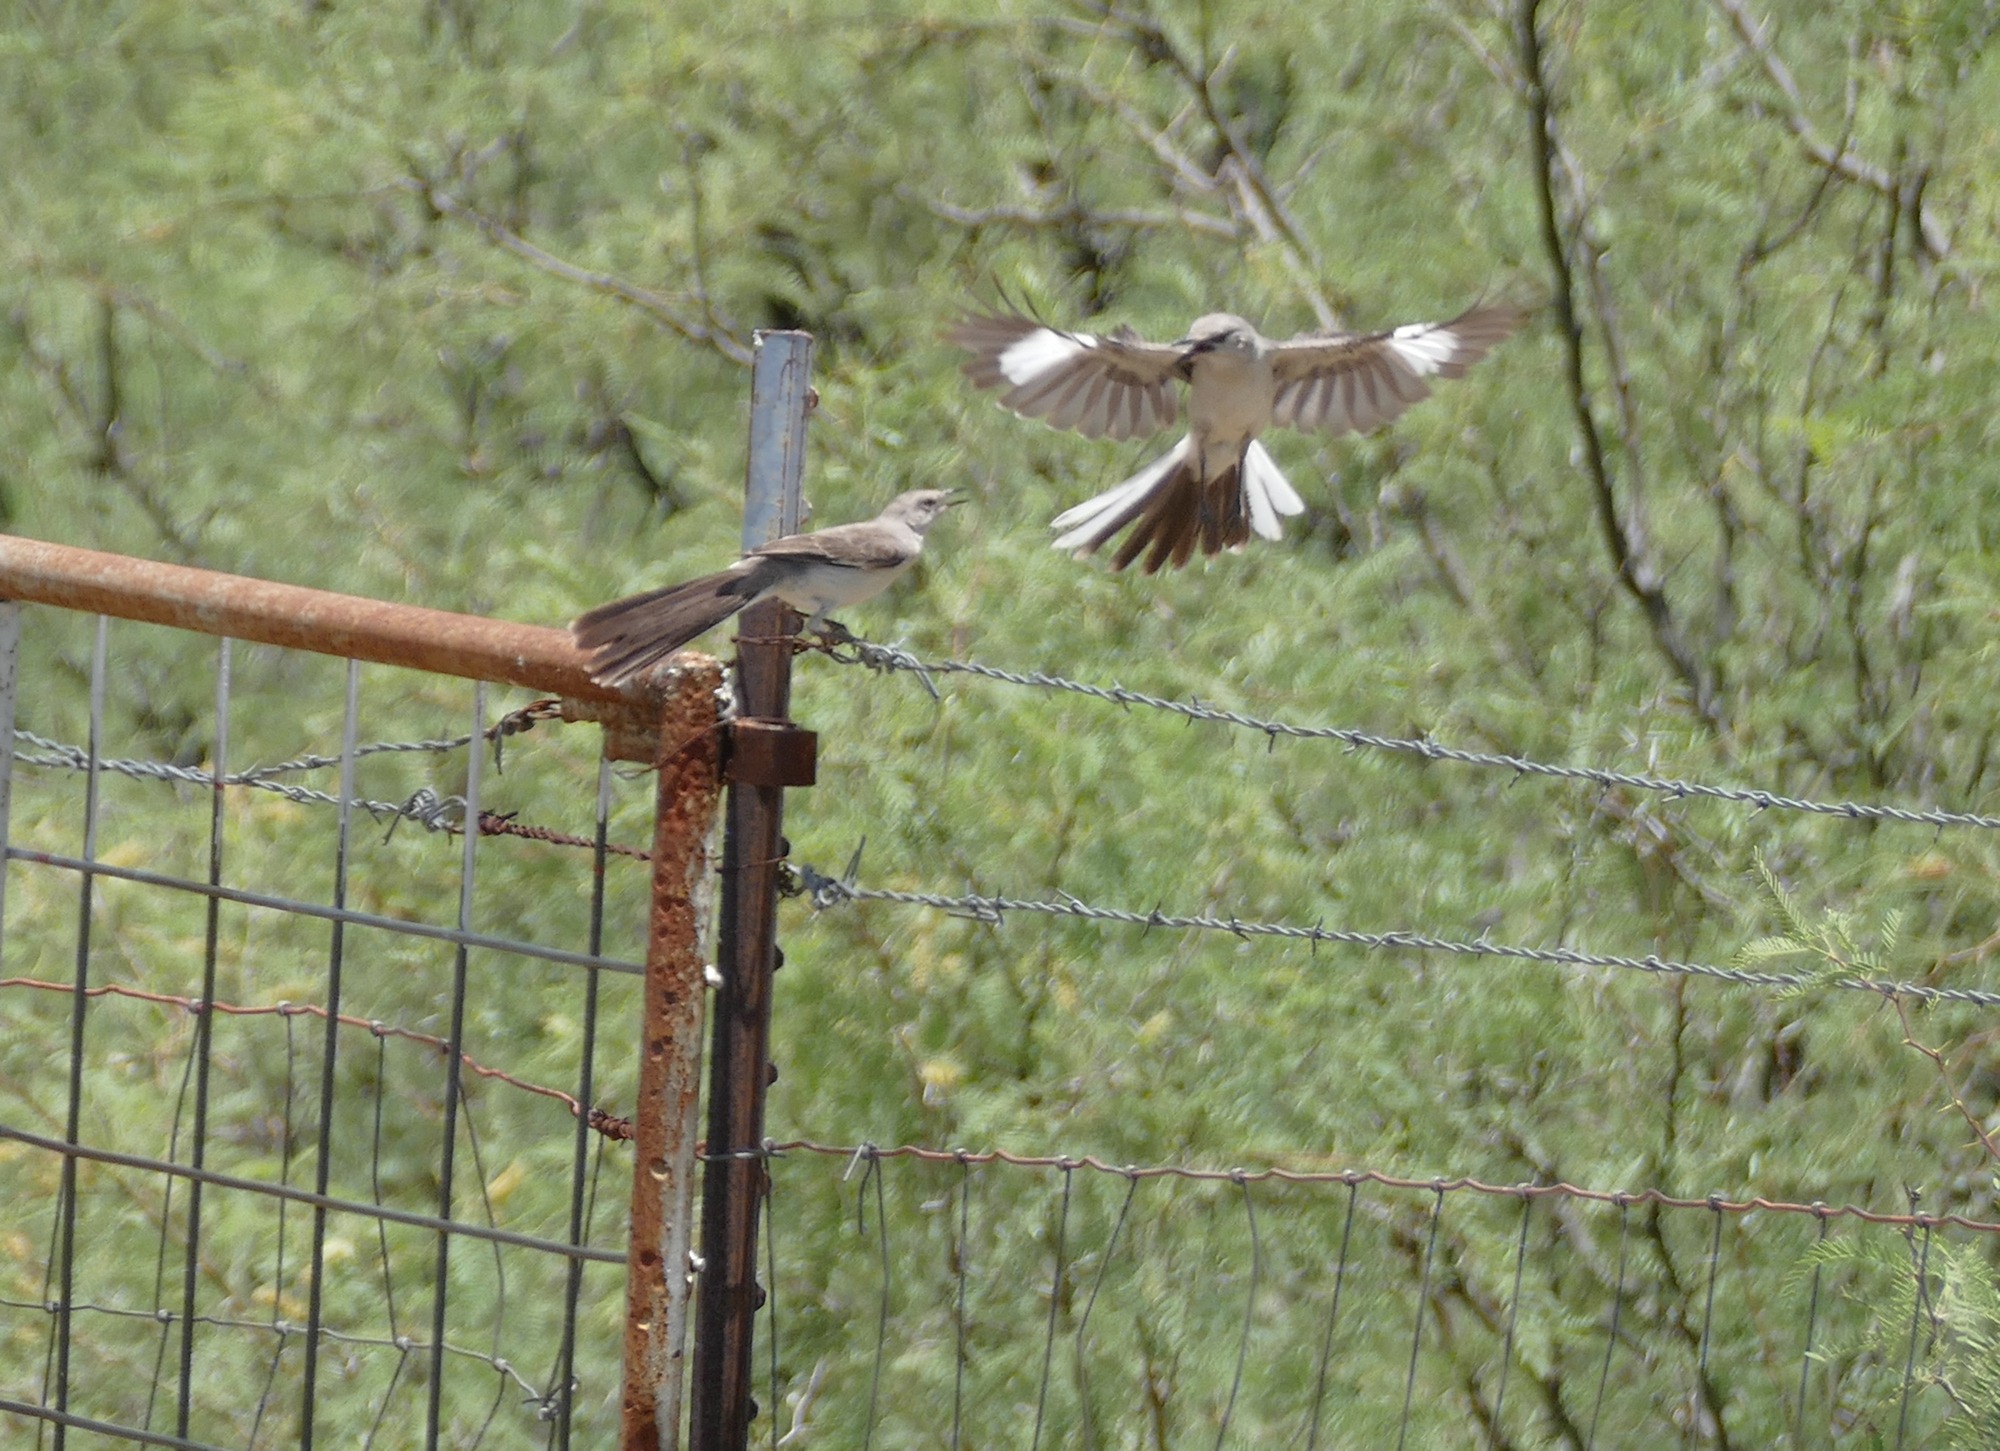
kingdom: Animalia
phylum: Chordata
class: Aves
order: Passeriformes
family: Mimidae
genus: Mimus
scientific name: Mimus polyglottos
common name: Northern mockingbird
